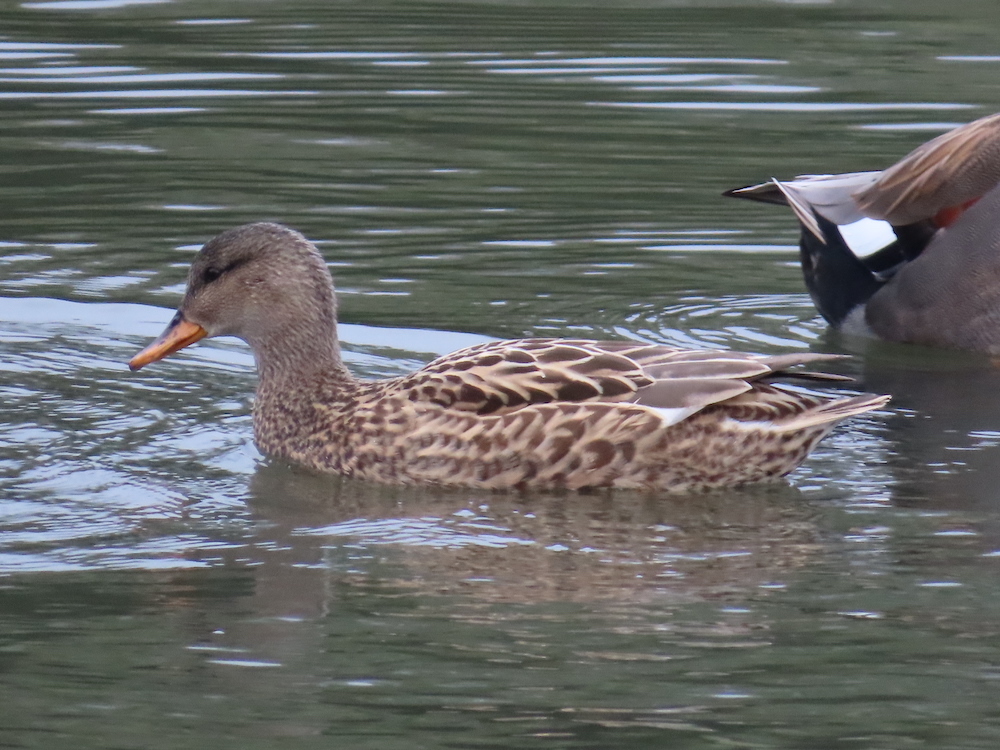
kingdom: Animalia
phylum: Chordata
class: Aves
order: Anseriformes
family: Anatidae
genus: Mareca
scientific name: Mareca strepera
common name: Gadwall
